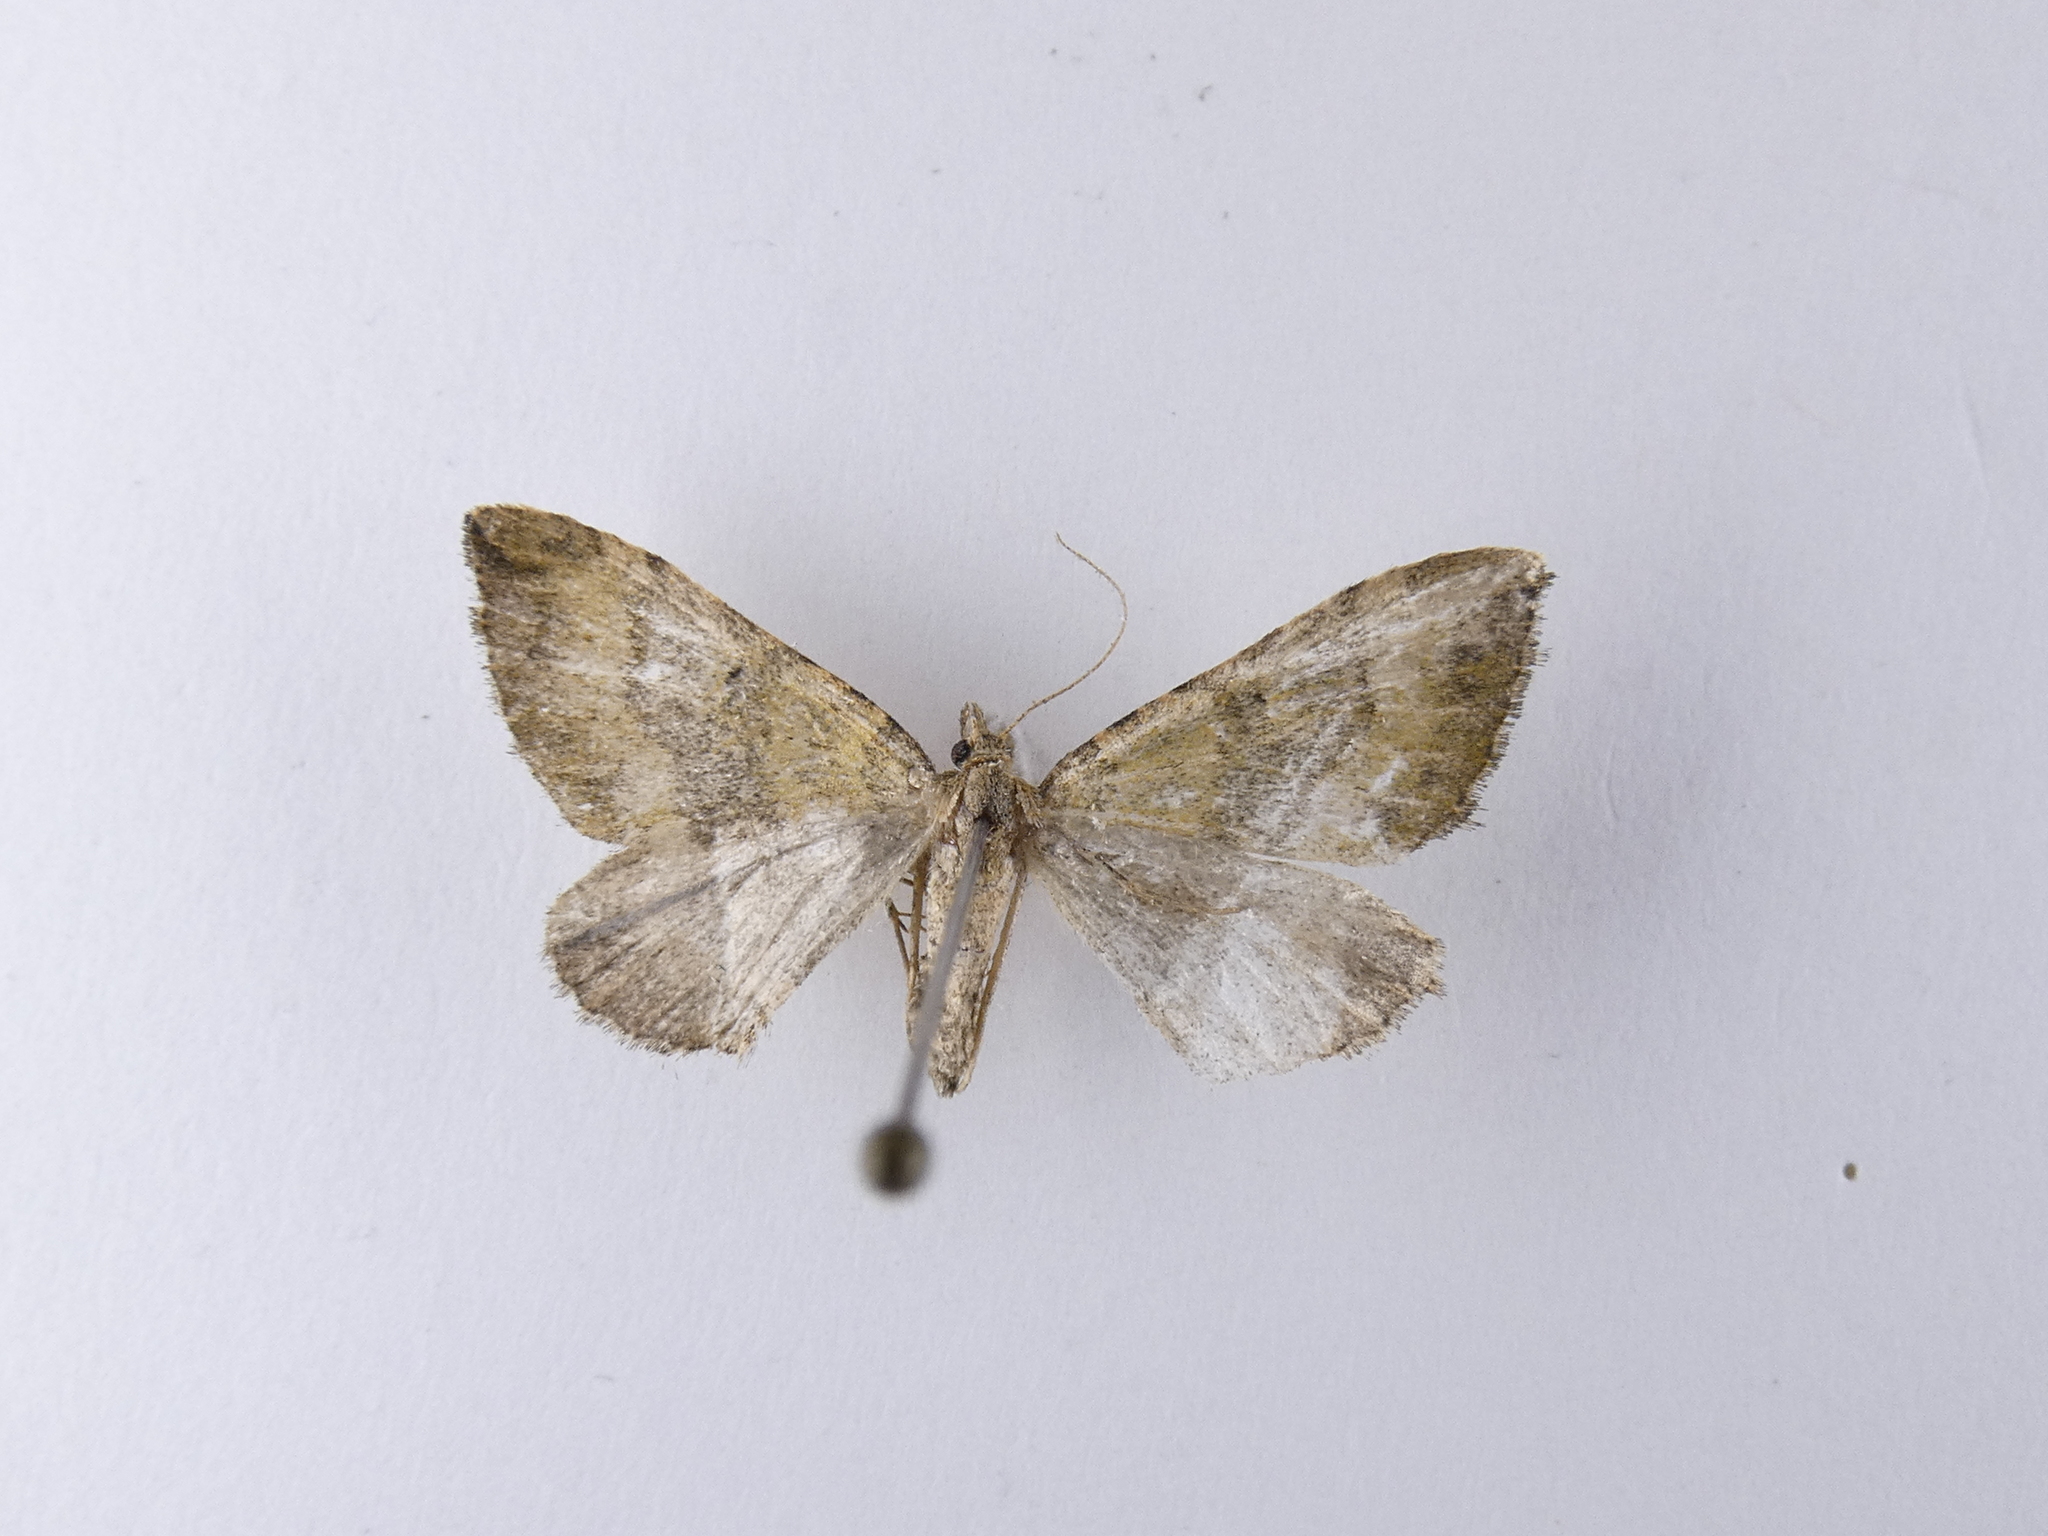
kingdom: Animalia
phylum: Arthropoda
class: Insecta
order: Lepidoptera
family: Geometridae
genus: Epyaxa
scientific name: Epyaxa rosearia
